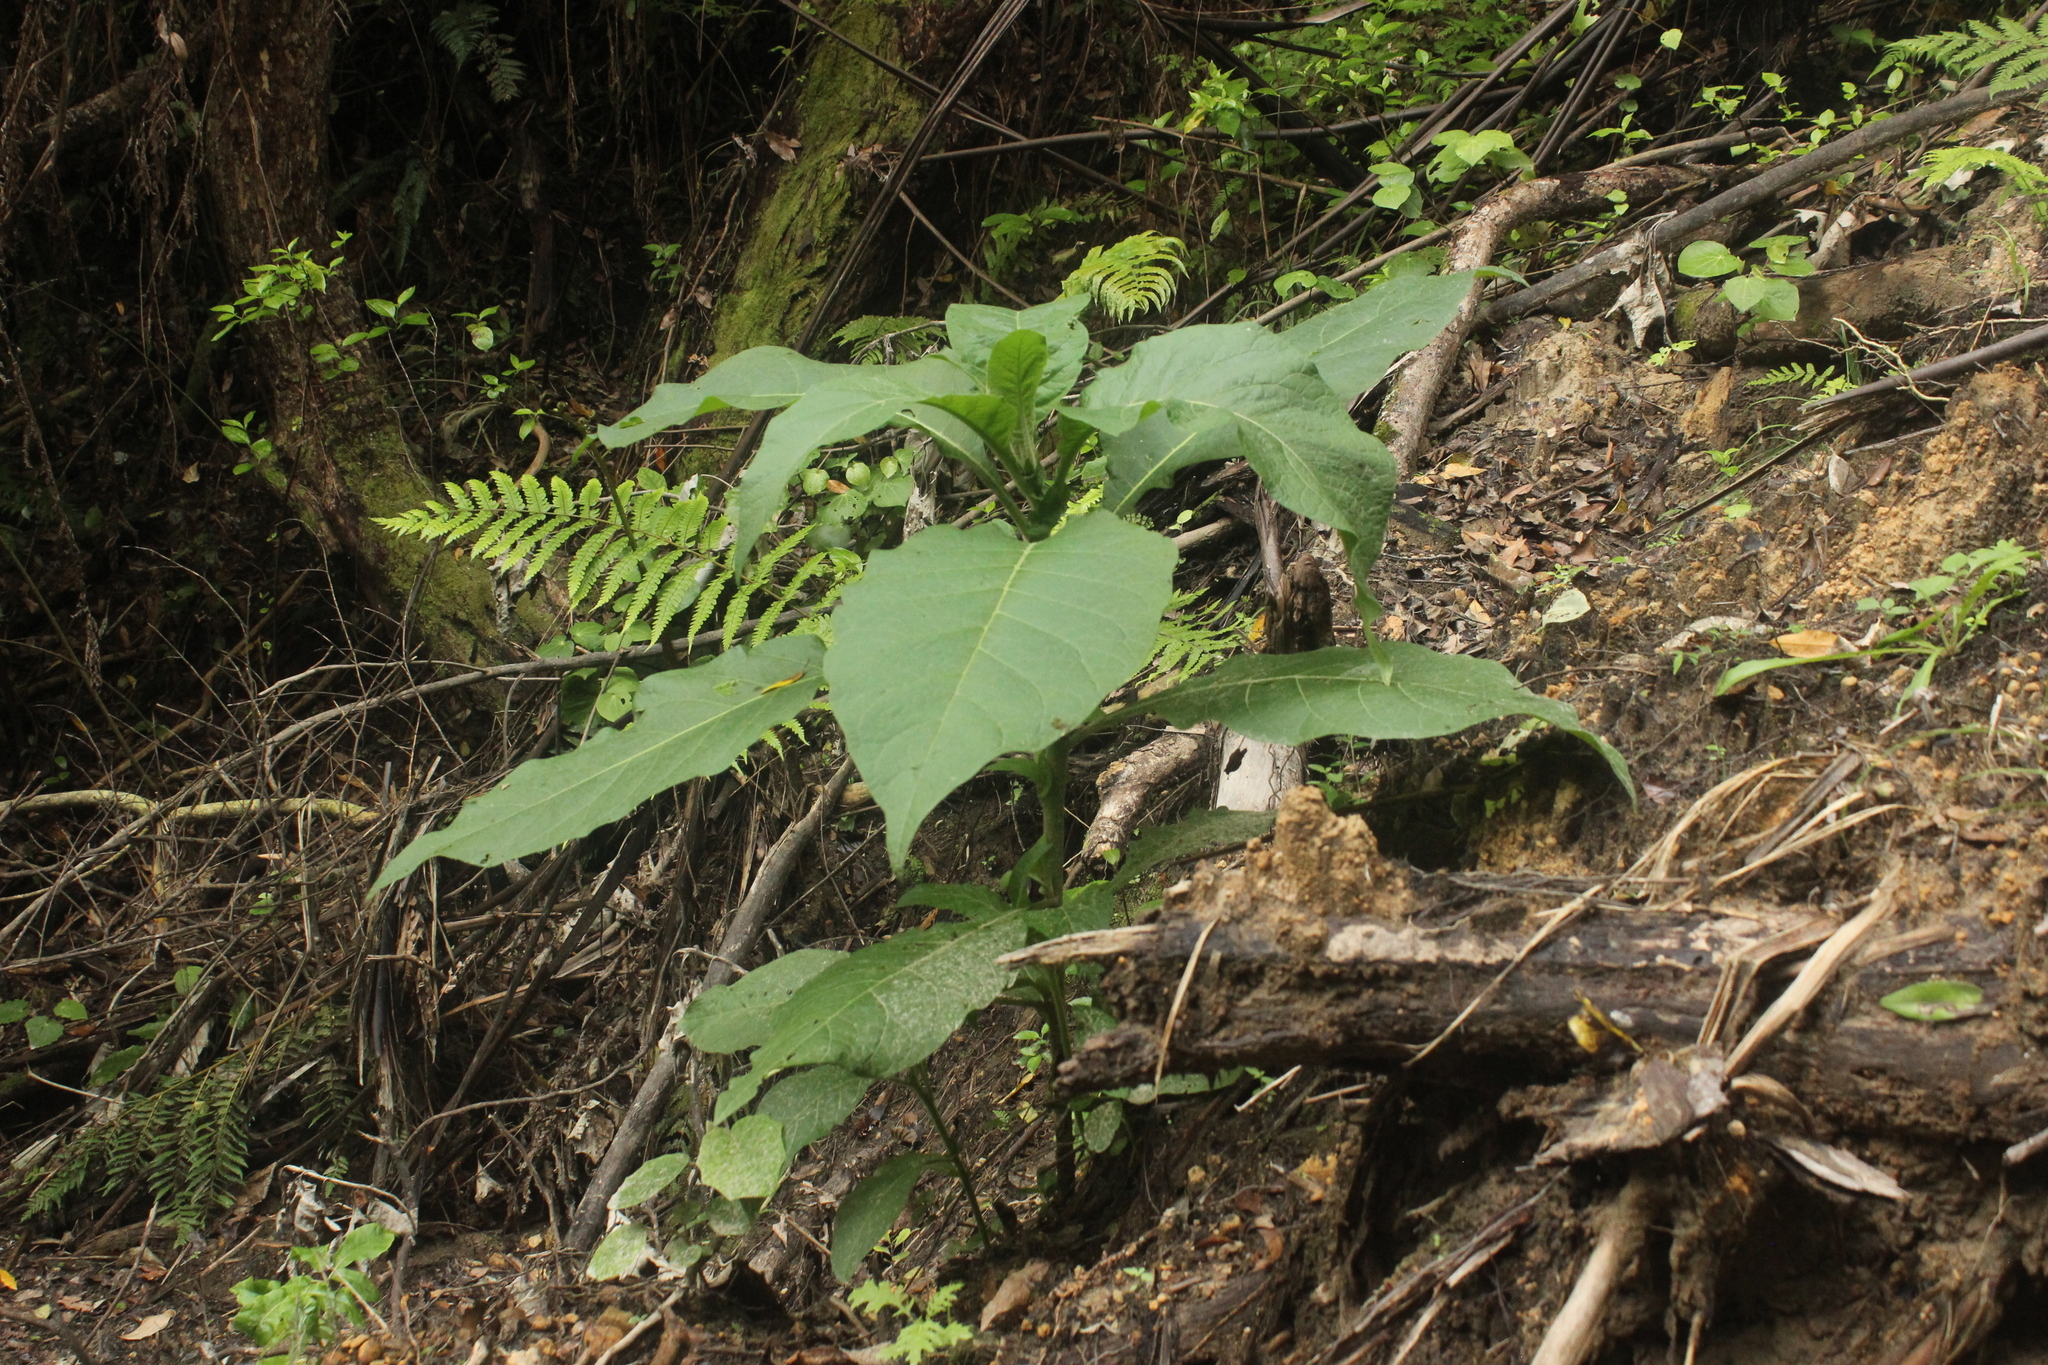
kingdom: Plantae
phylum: Tracheophyta
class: Magnoliopsida
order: Solanales
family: Solanaceae
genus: Solanum
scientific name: Solanum mauritianum
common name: Earleaf nightshade
